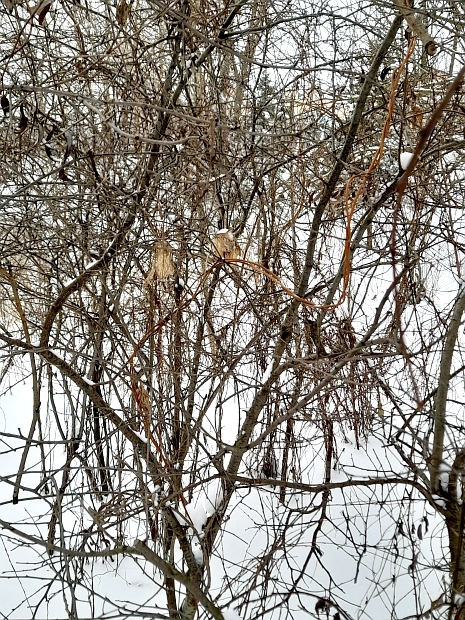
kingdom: Plantae
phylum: Tracheophyta
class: Magnoliopsida
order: Rosales
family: Cannabaceae
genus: Humulus
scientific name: Humulus lupulus
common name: Hop
